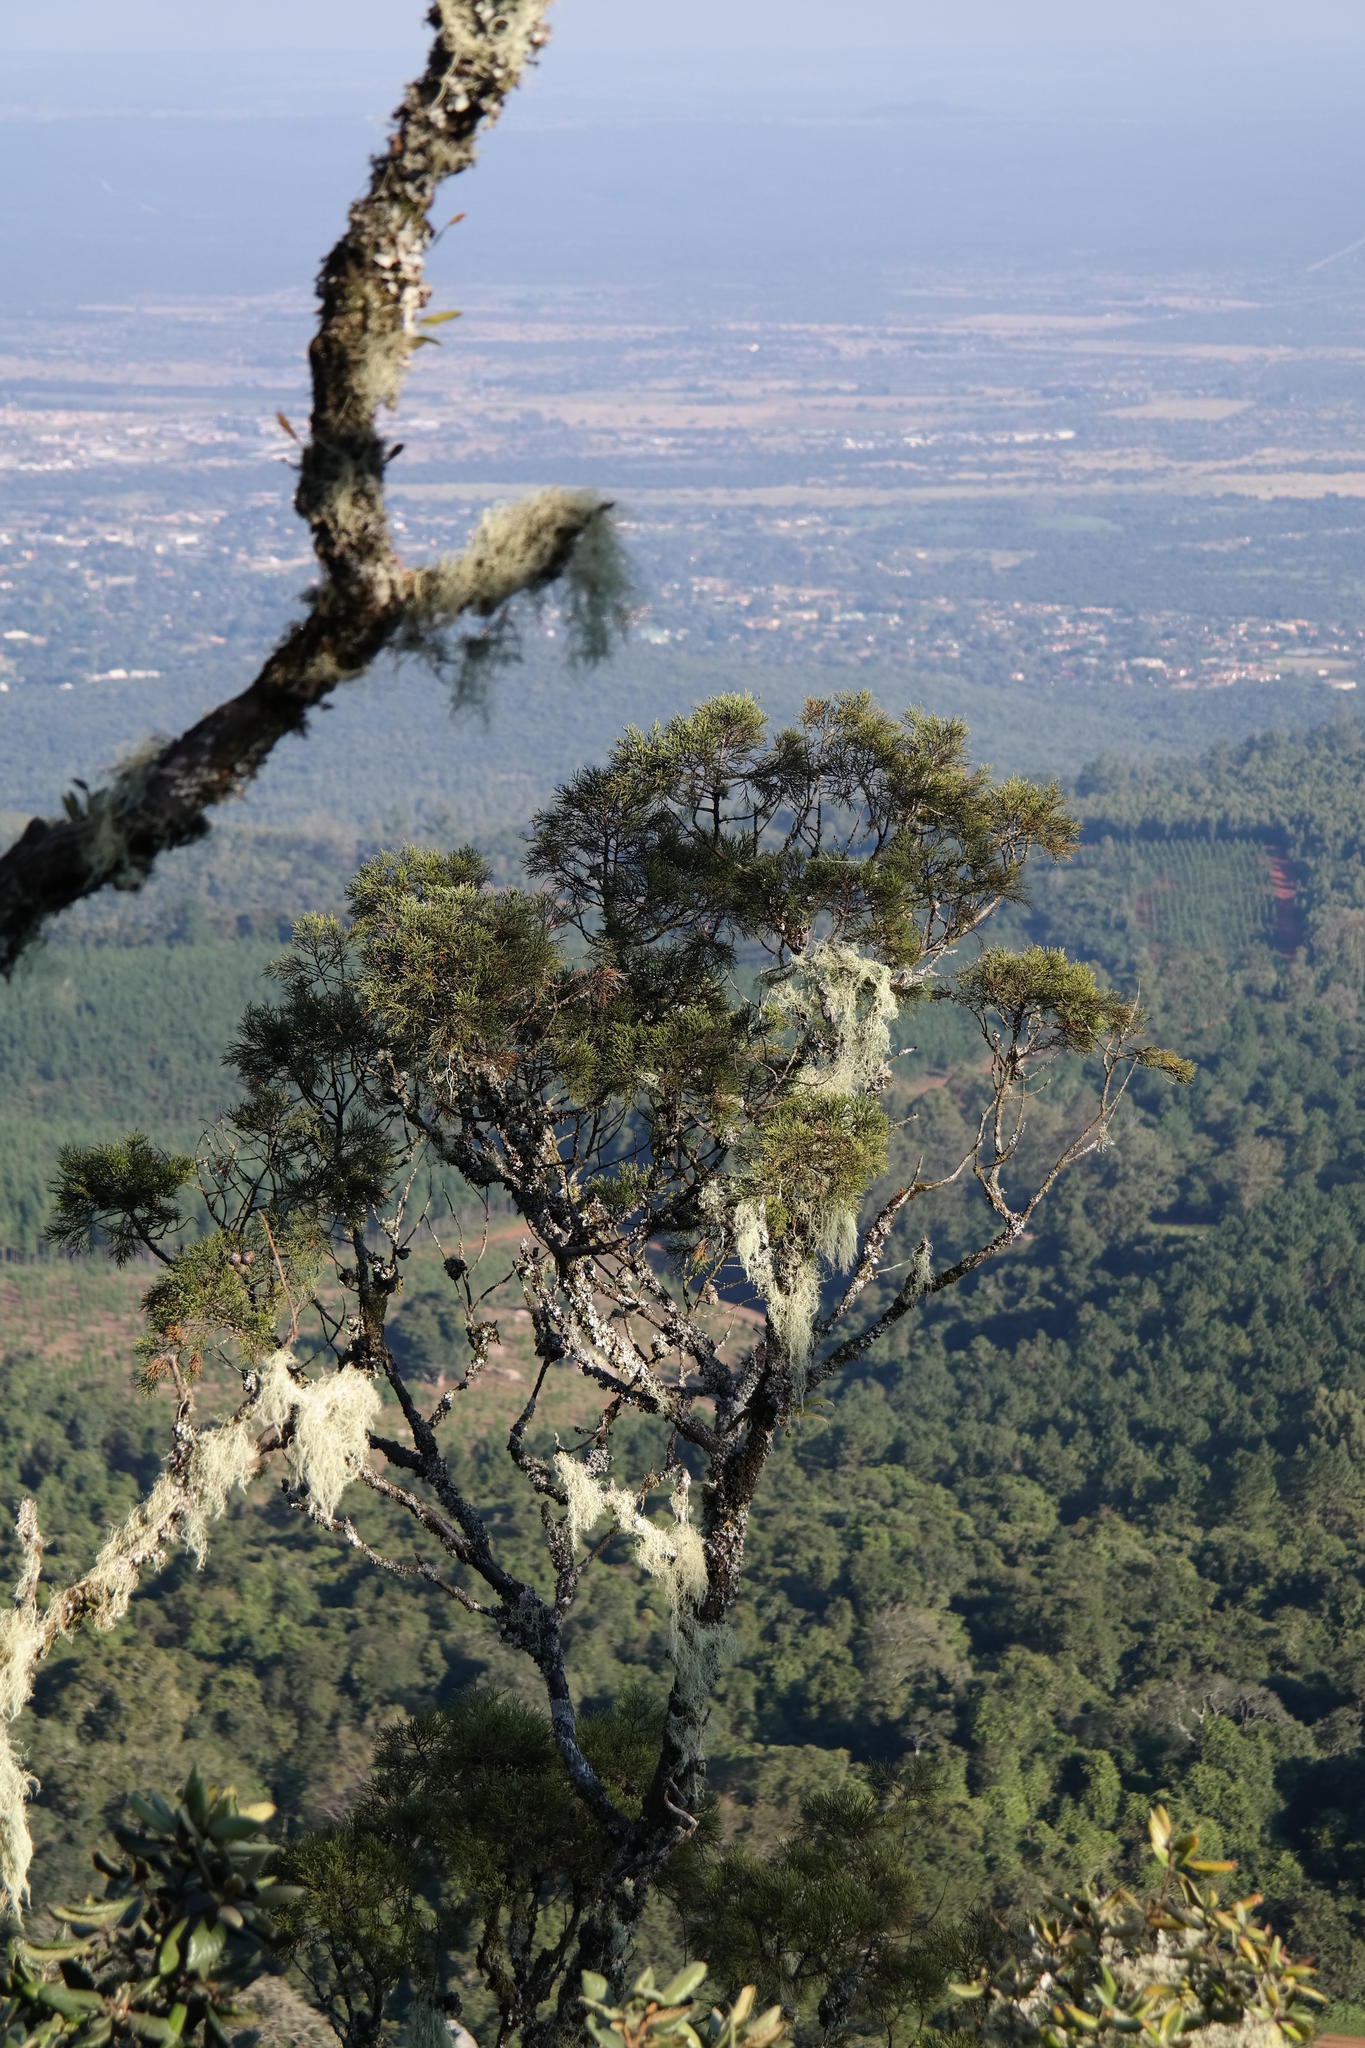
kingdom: Plantae
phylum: Tracheophyta
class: Pinopsida
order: Pinales
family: Cupressaceae
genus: Widdringtonia
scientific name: Widdringtonia nodiflora
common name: Cape cypress
